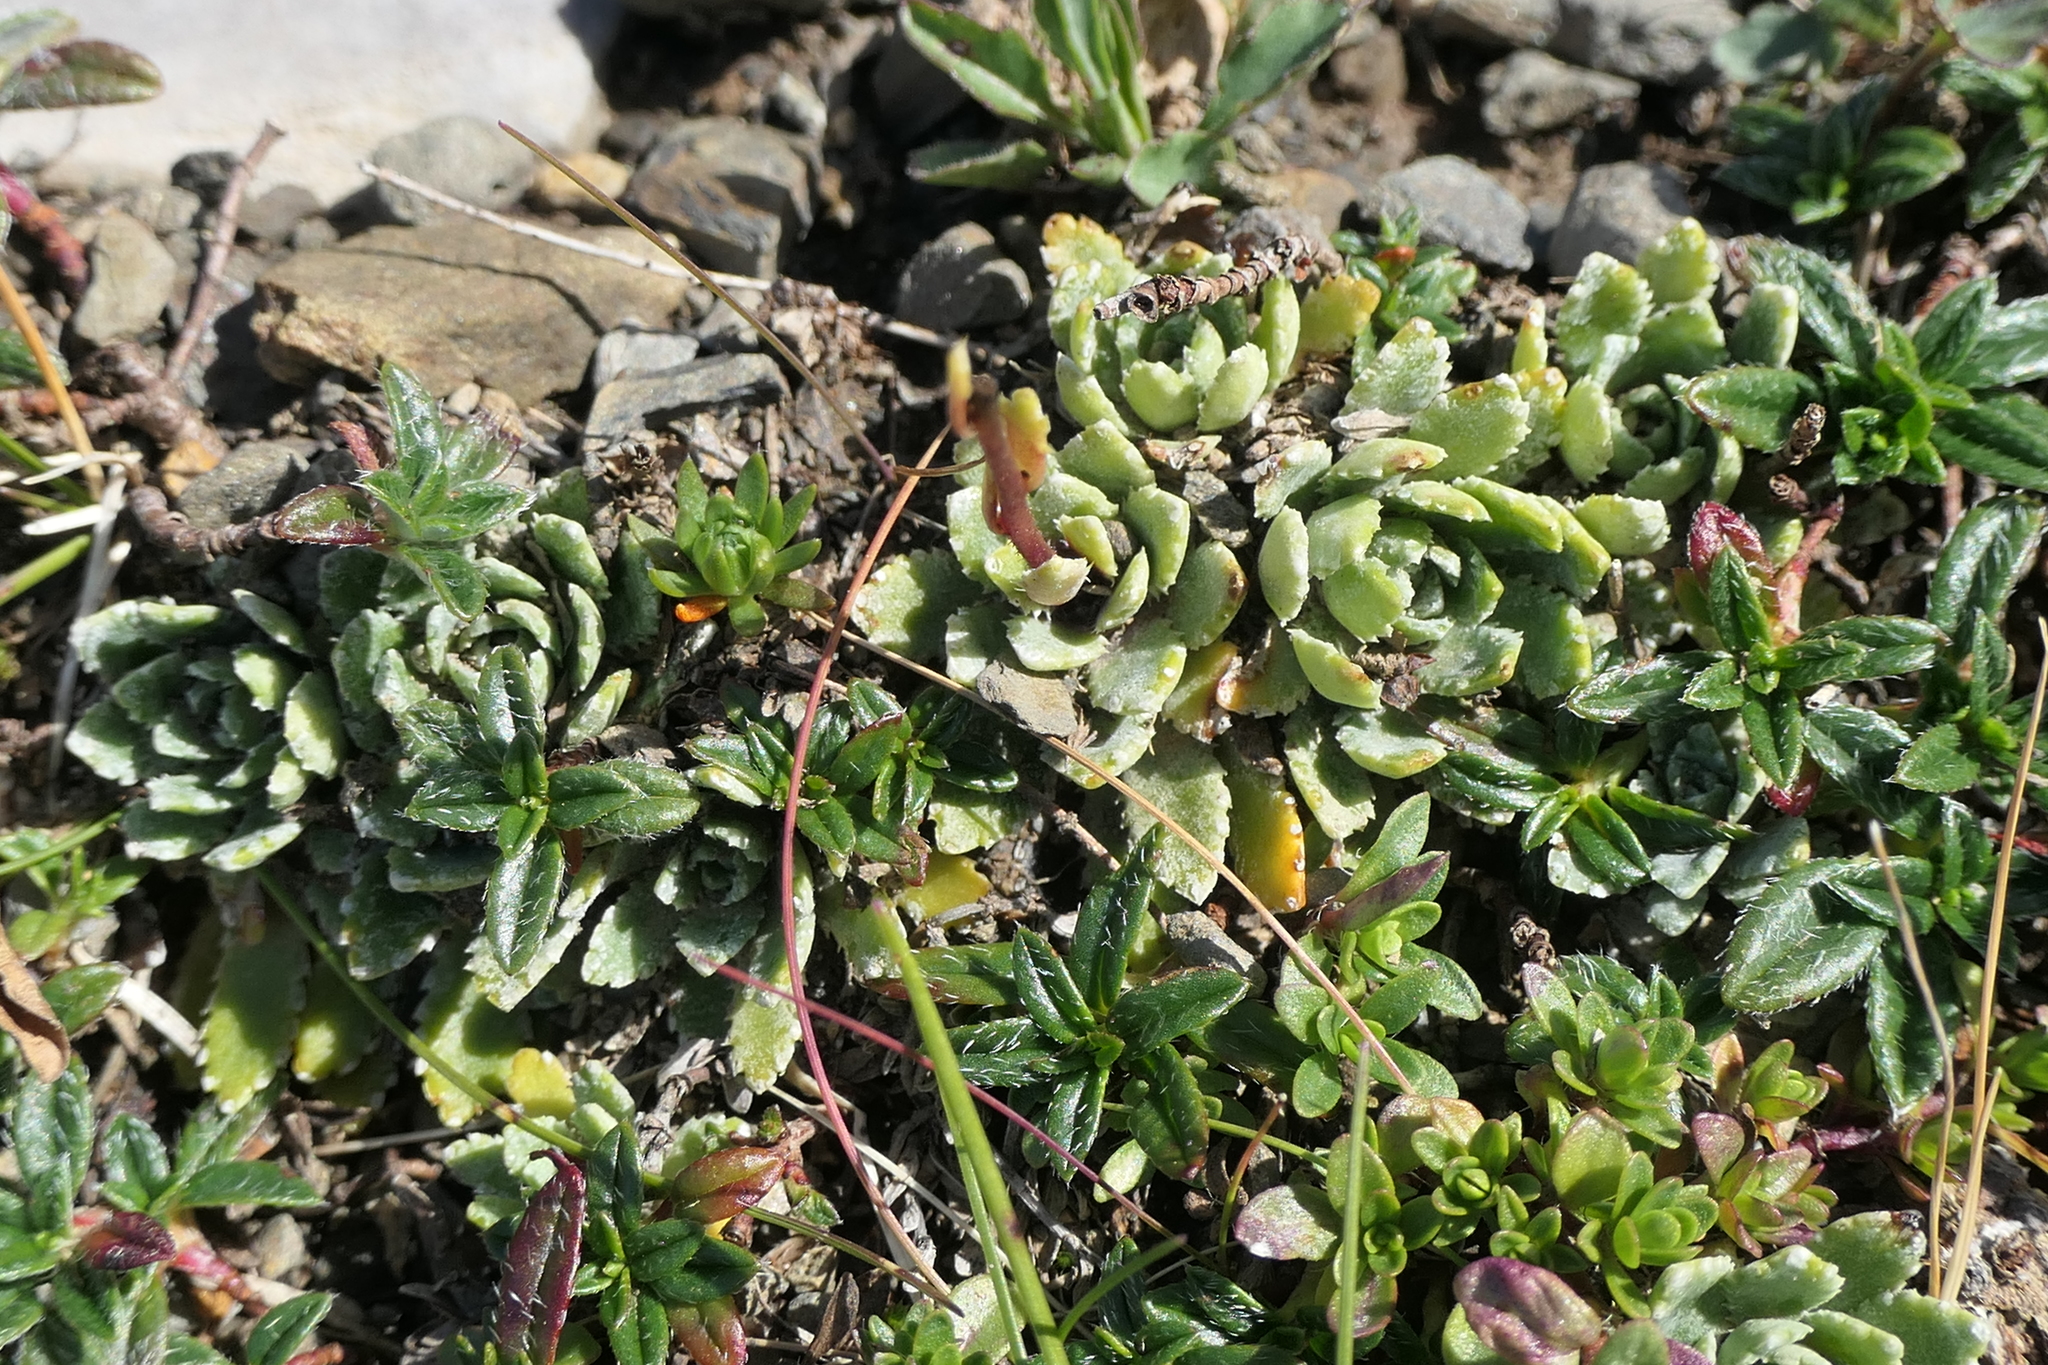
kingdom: Plantae
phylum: Tracheophyta
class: Magnoliopsida
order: Saxifragales
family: Saxifragaceae
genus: Saxifraga
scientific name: Saxifraga paniculata
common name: Livelong saxifrage
